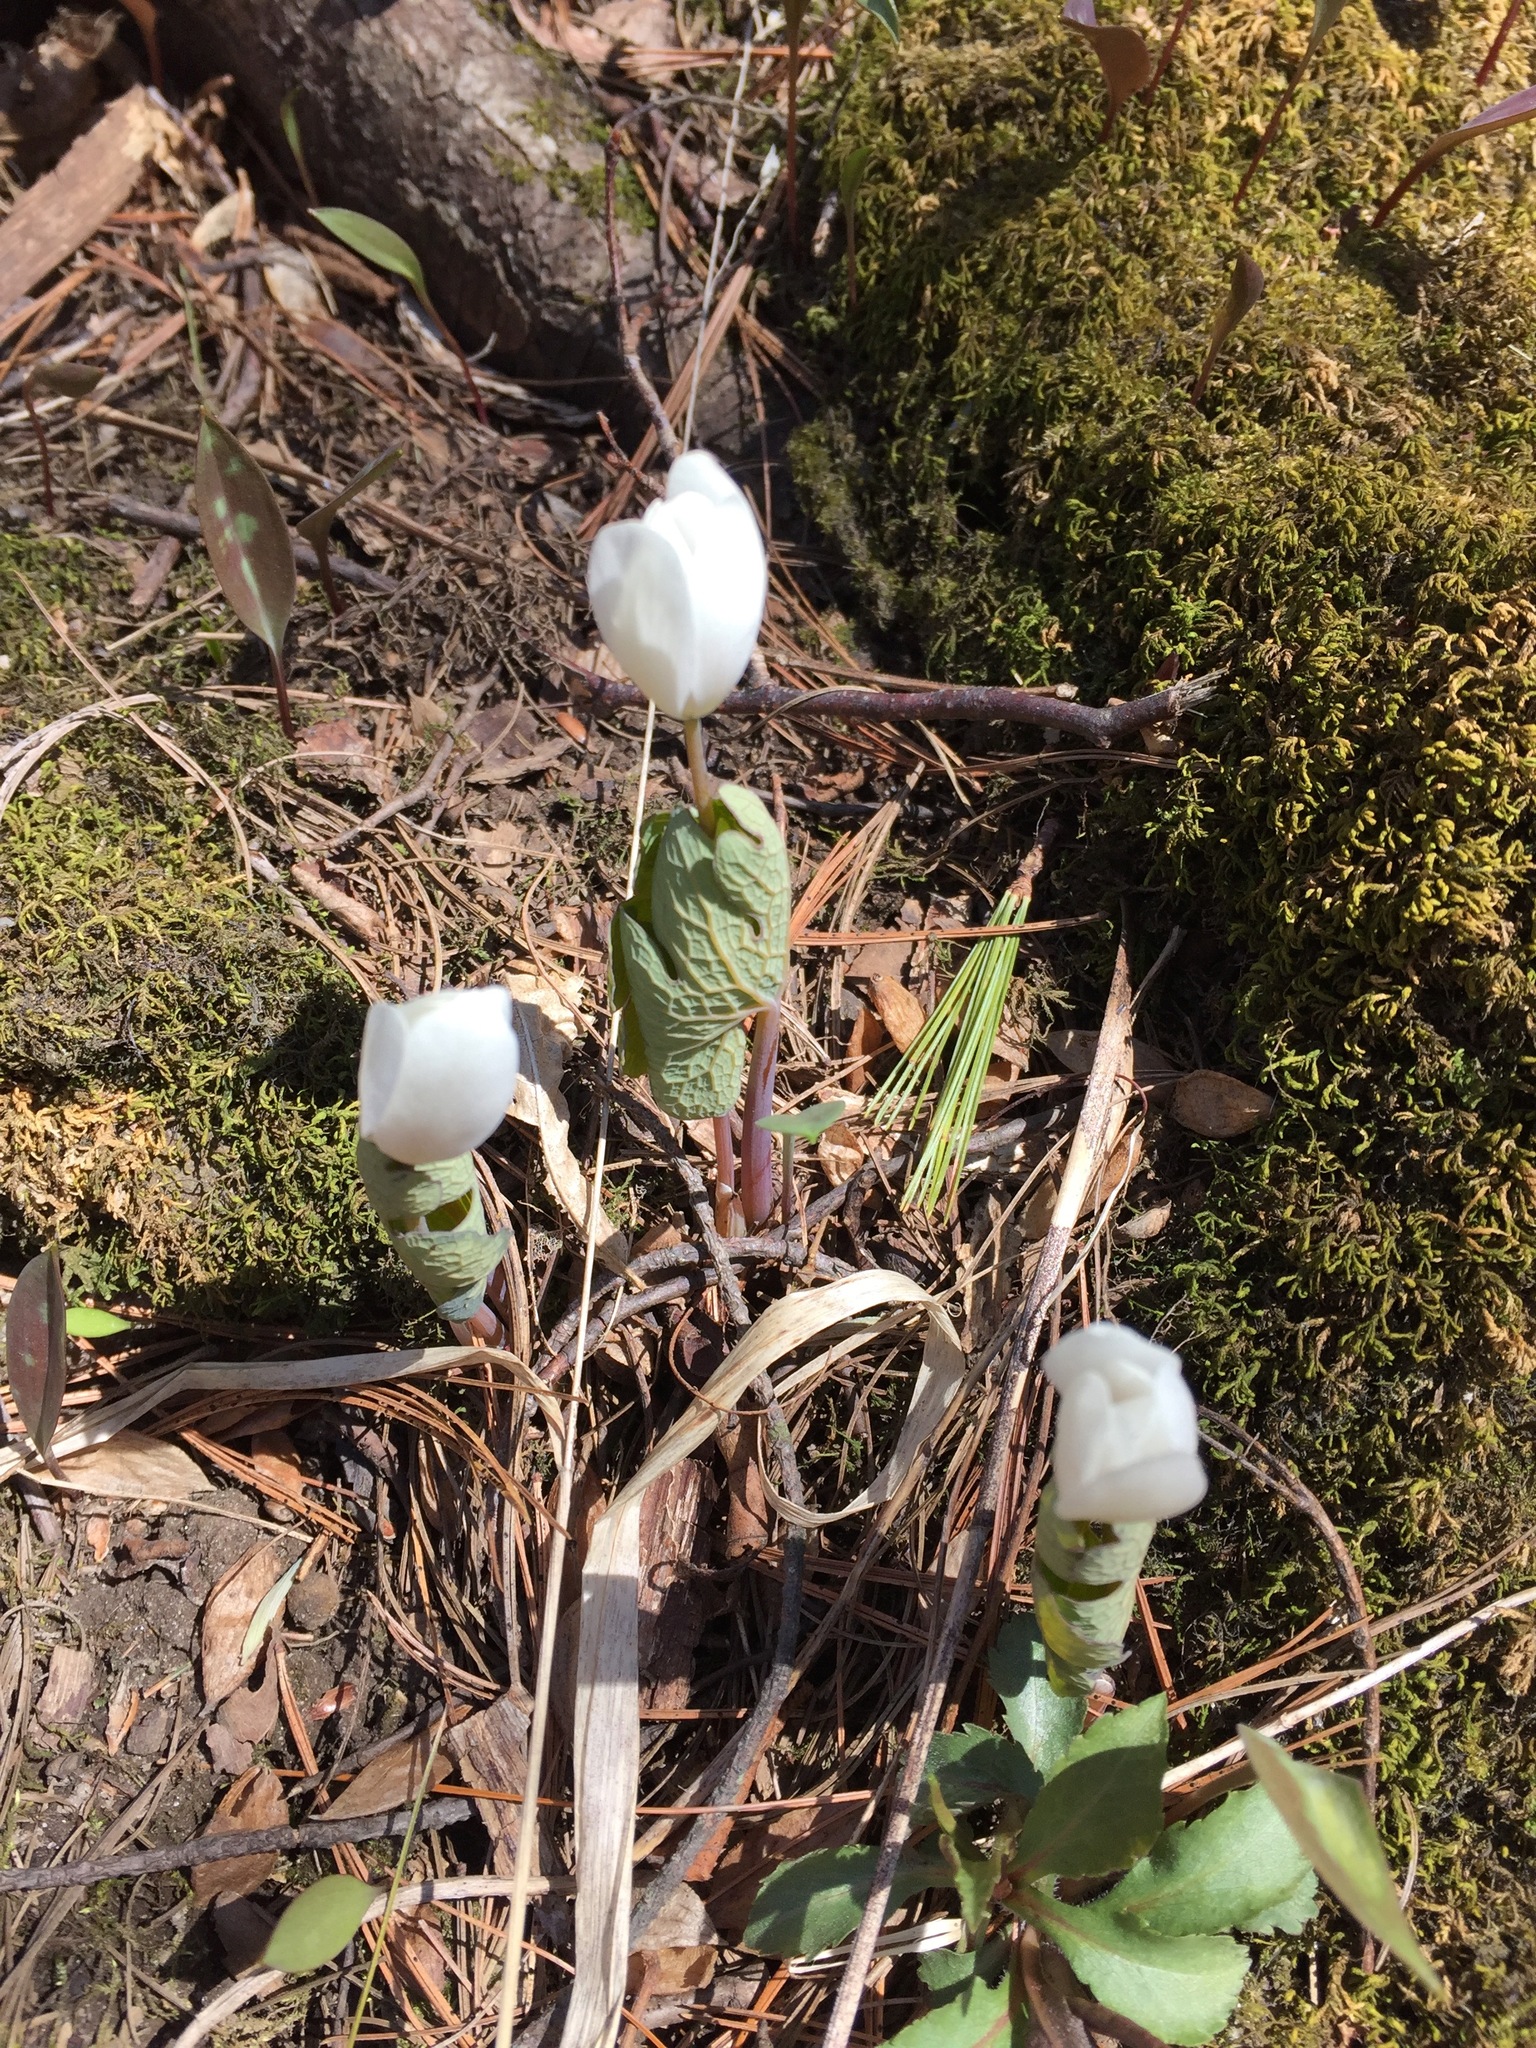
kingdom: Plantae
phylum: Tracheophyta
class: Magnoliopsida
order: Ranunculales
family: Papaveraceae
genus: Sanguinaria
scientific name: Sanguinaria canadensis
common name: Bloodroot
